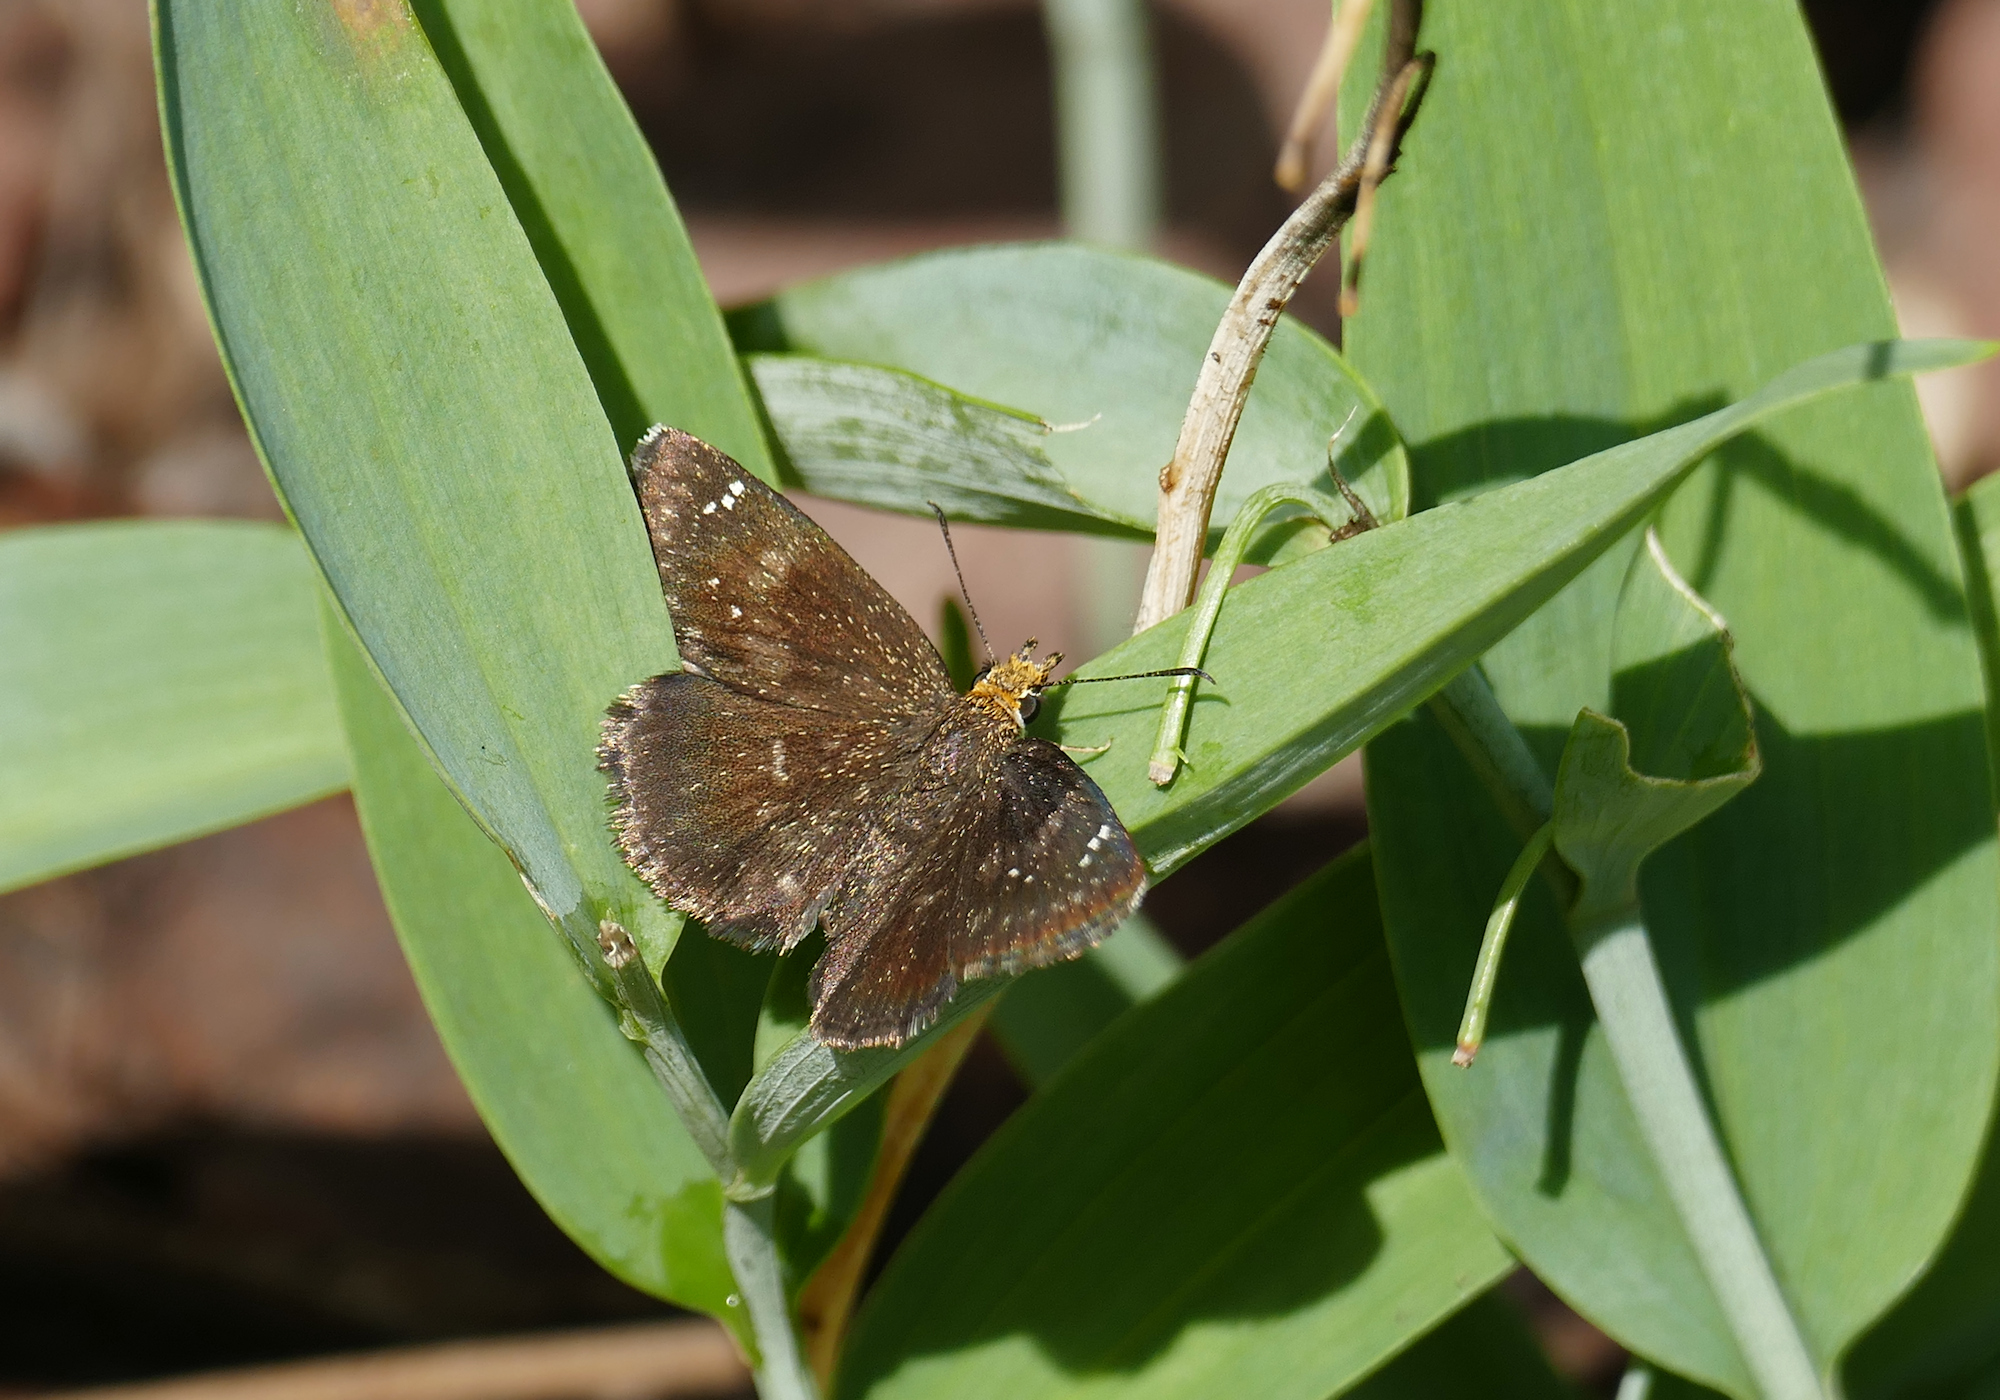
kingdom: Animalia
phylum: Arthropoda
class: Insecta
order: Lepidoptera
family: Hesperiidae
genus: Staphylus
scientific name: Staphylus ceos
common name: Golden-headed scallopwing
